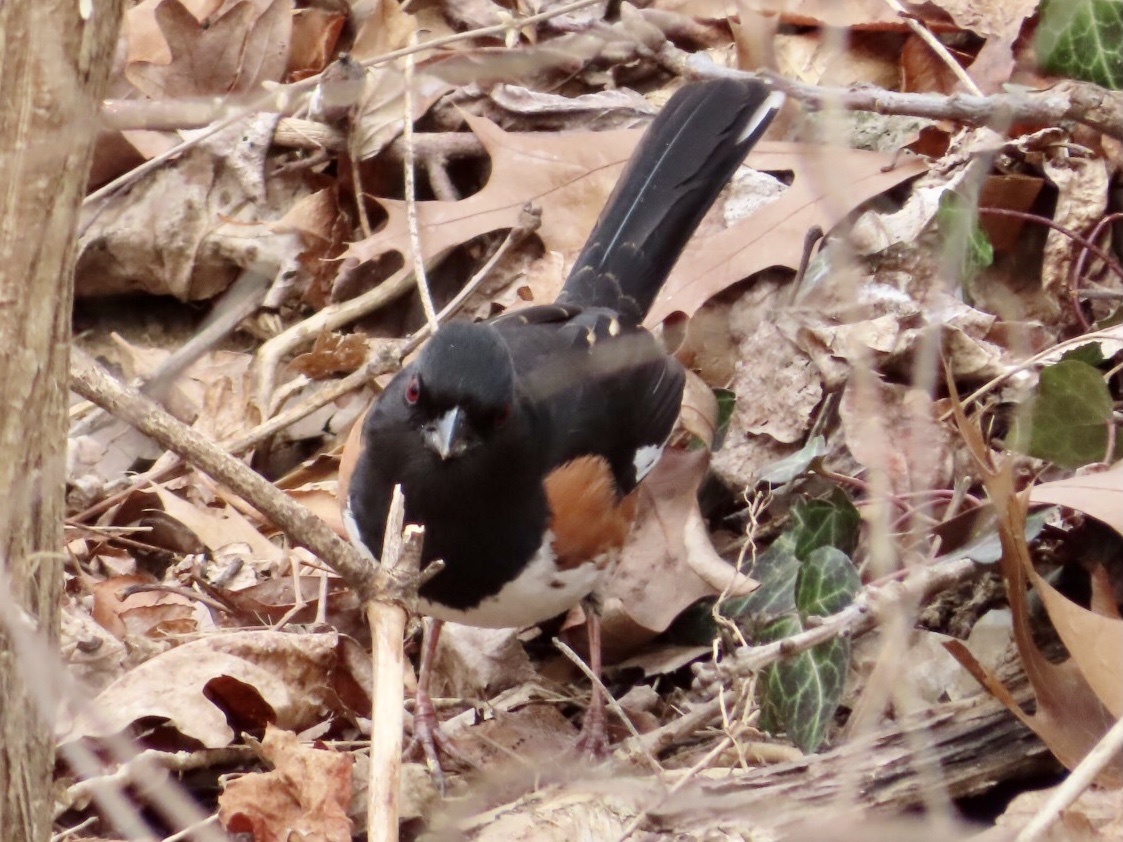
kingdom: Animalia
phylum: Chordata
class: Aves
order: Passeriformes
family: Passerellidae
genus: Pipilo
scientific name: Pipilo erythrophthalmus
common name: Eastern towhee
